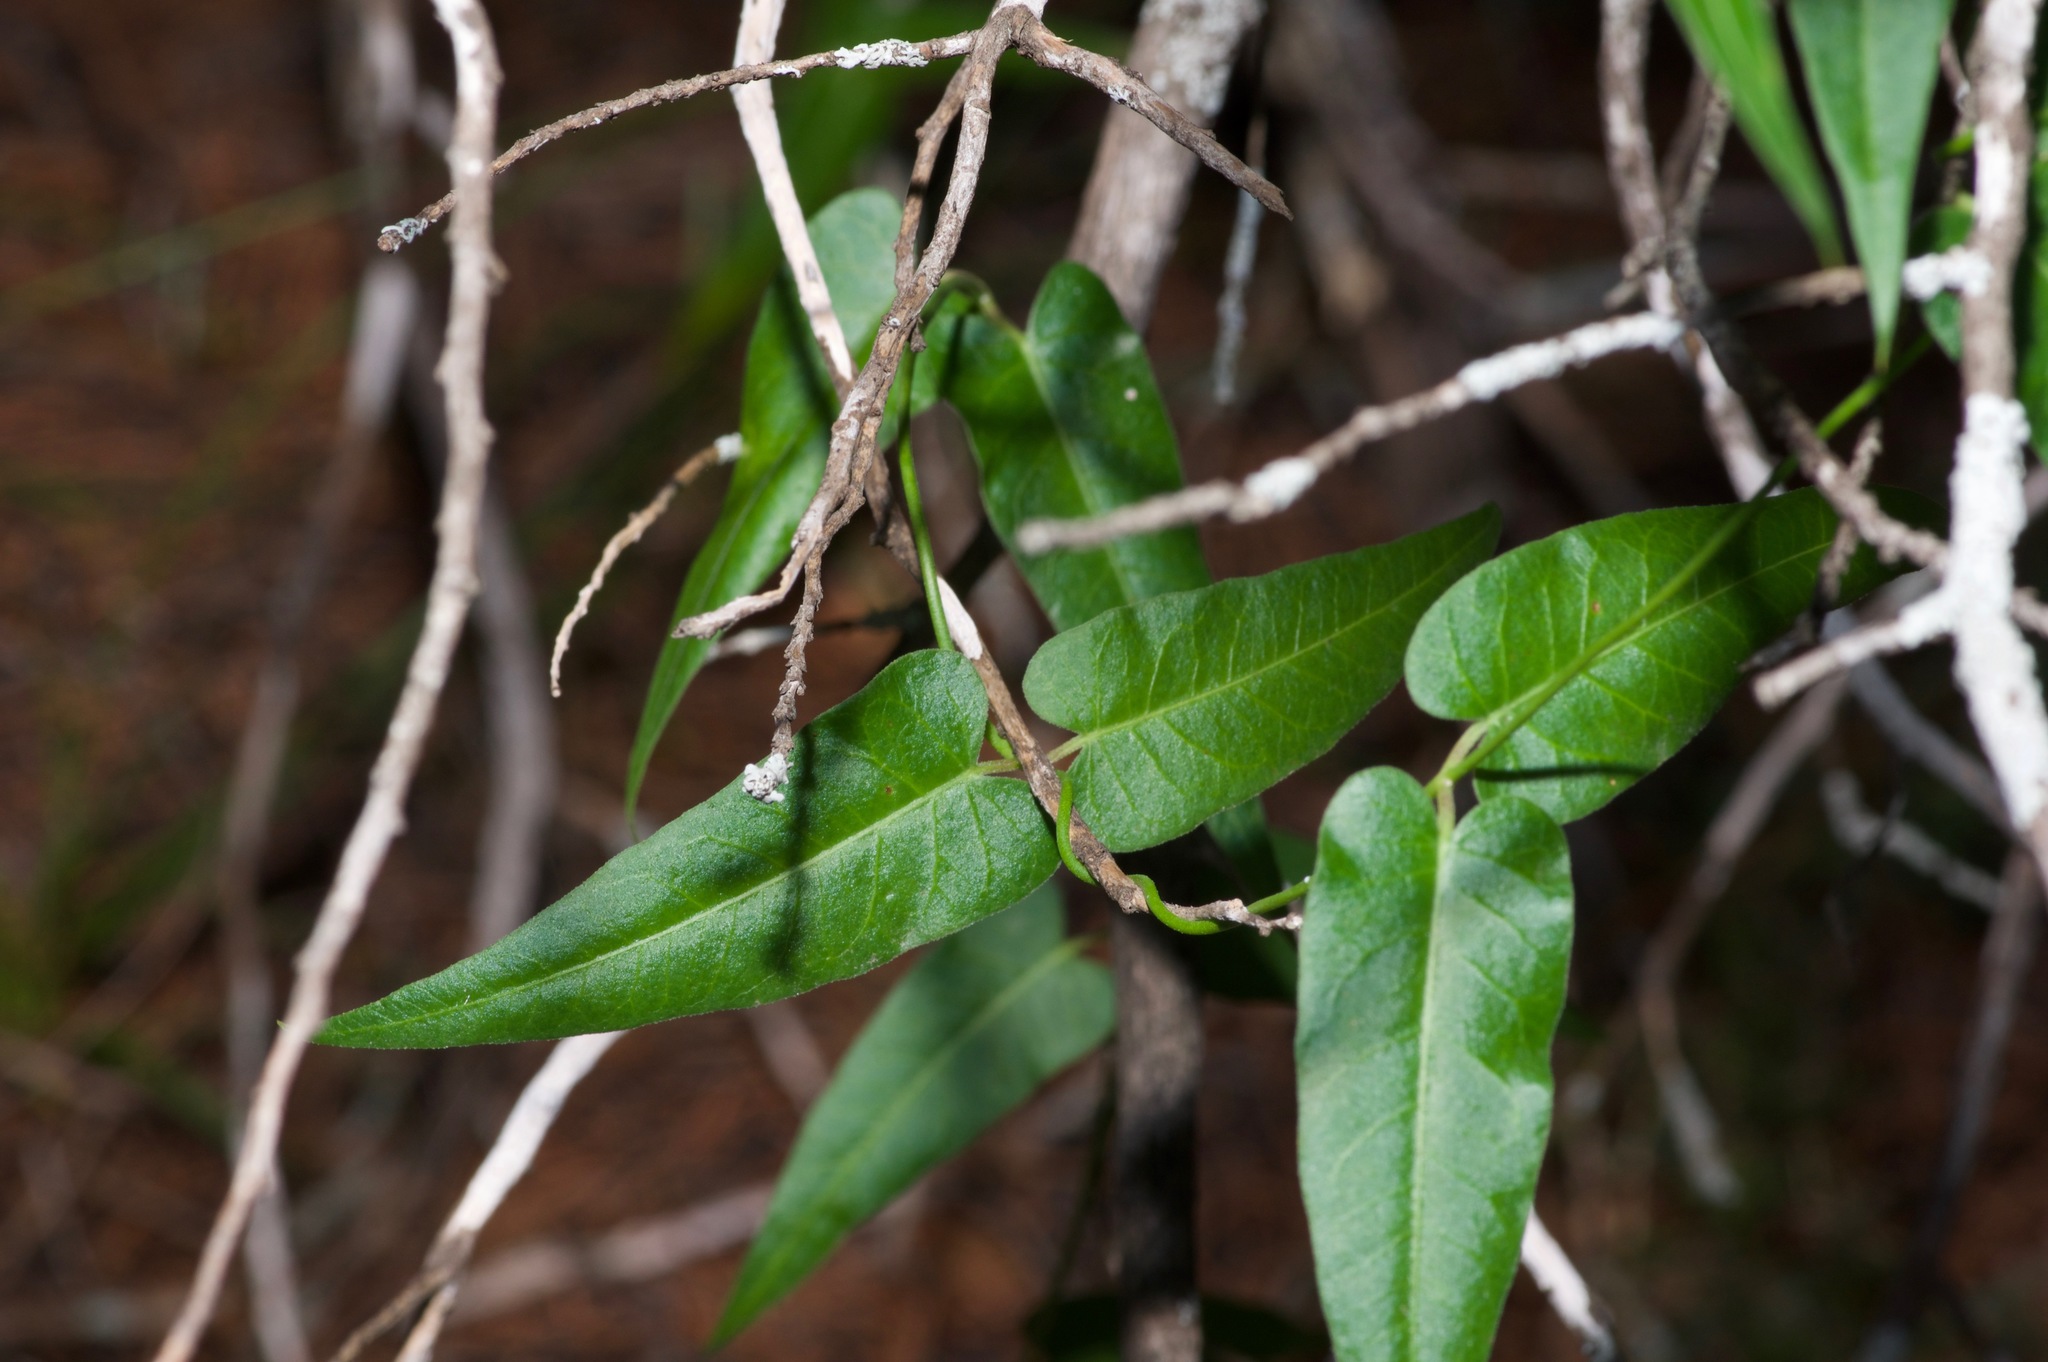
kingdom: Plantae
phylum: Tracheophyta
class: Magnoliopsida
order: Gentianales
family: Apocynaceae
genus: Funastrum
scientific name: Funastrum cynanchoides
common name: Climbing-milkweed
